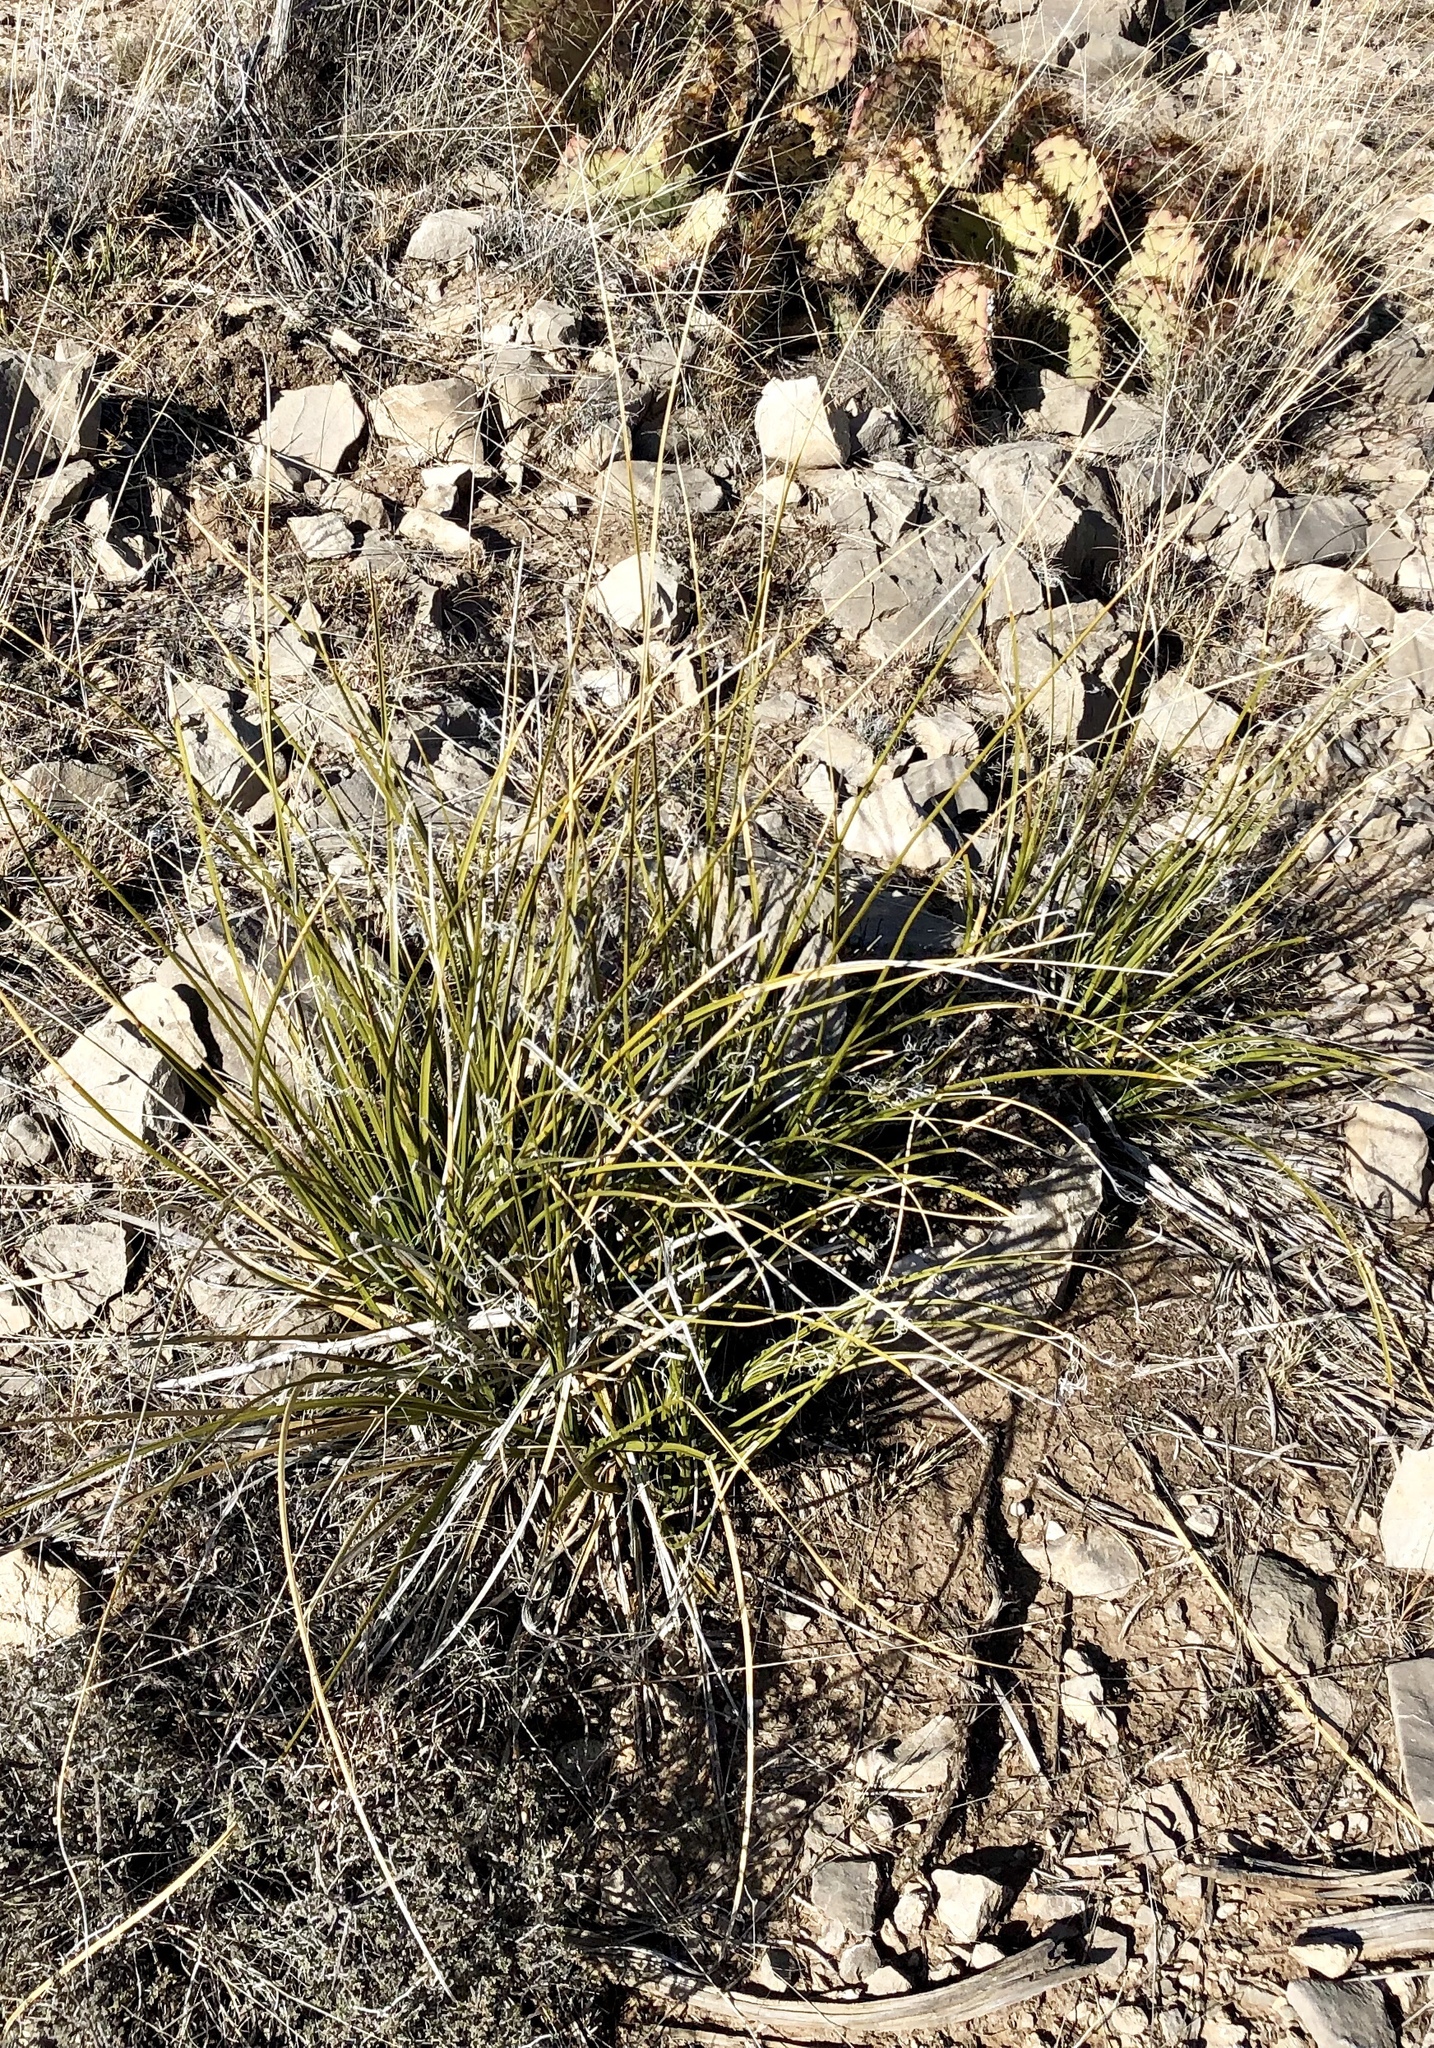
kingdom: Plantae
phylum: Tracheophyta
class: Liliopsida
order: Asparagales
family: Asparagaceae
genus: Nolina
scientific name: Nolina texana
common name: Texas sacahuiste
